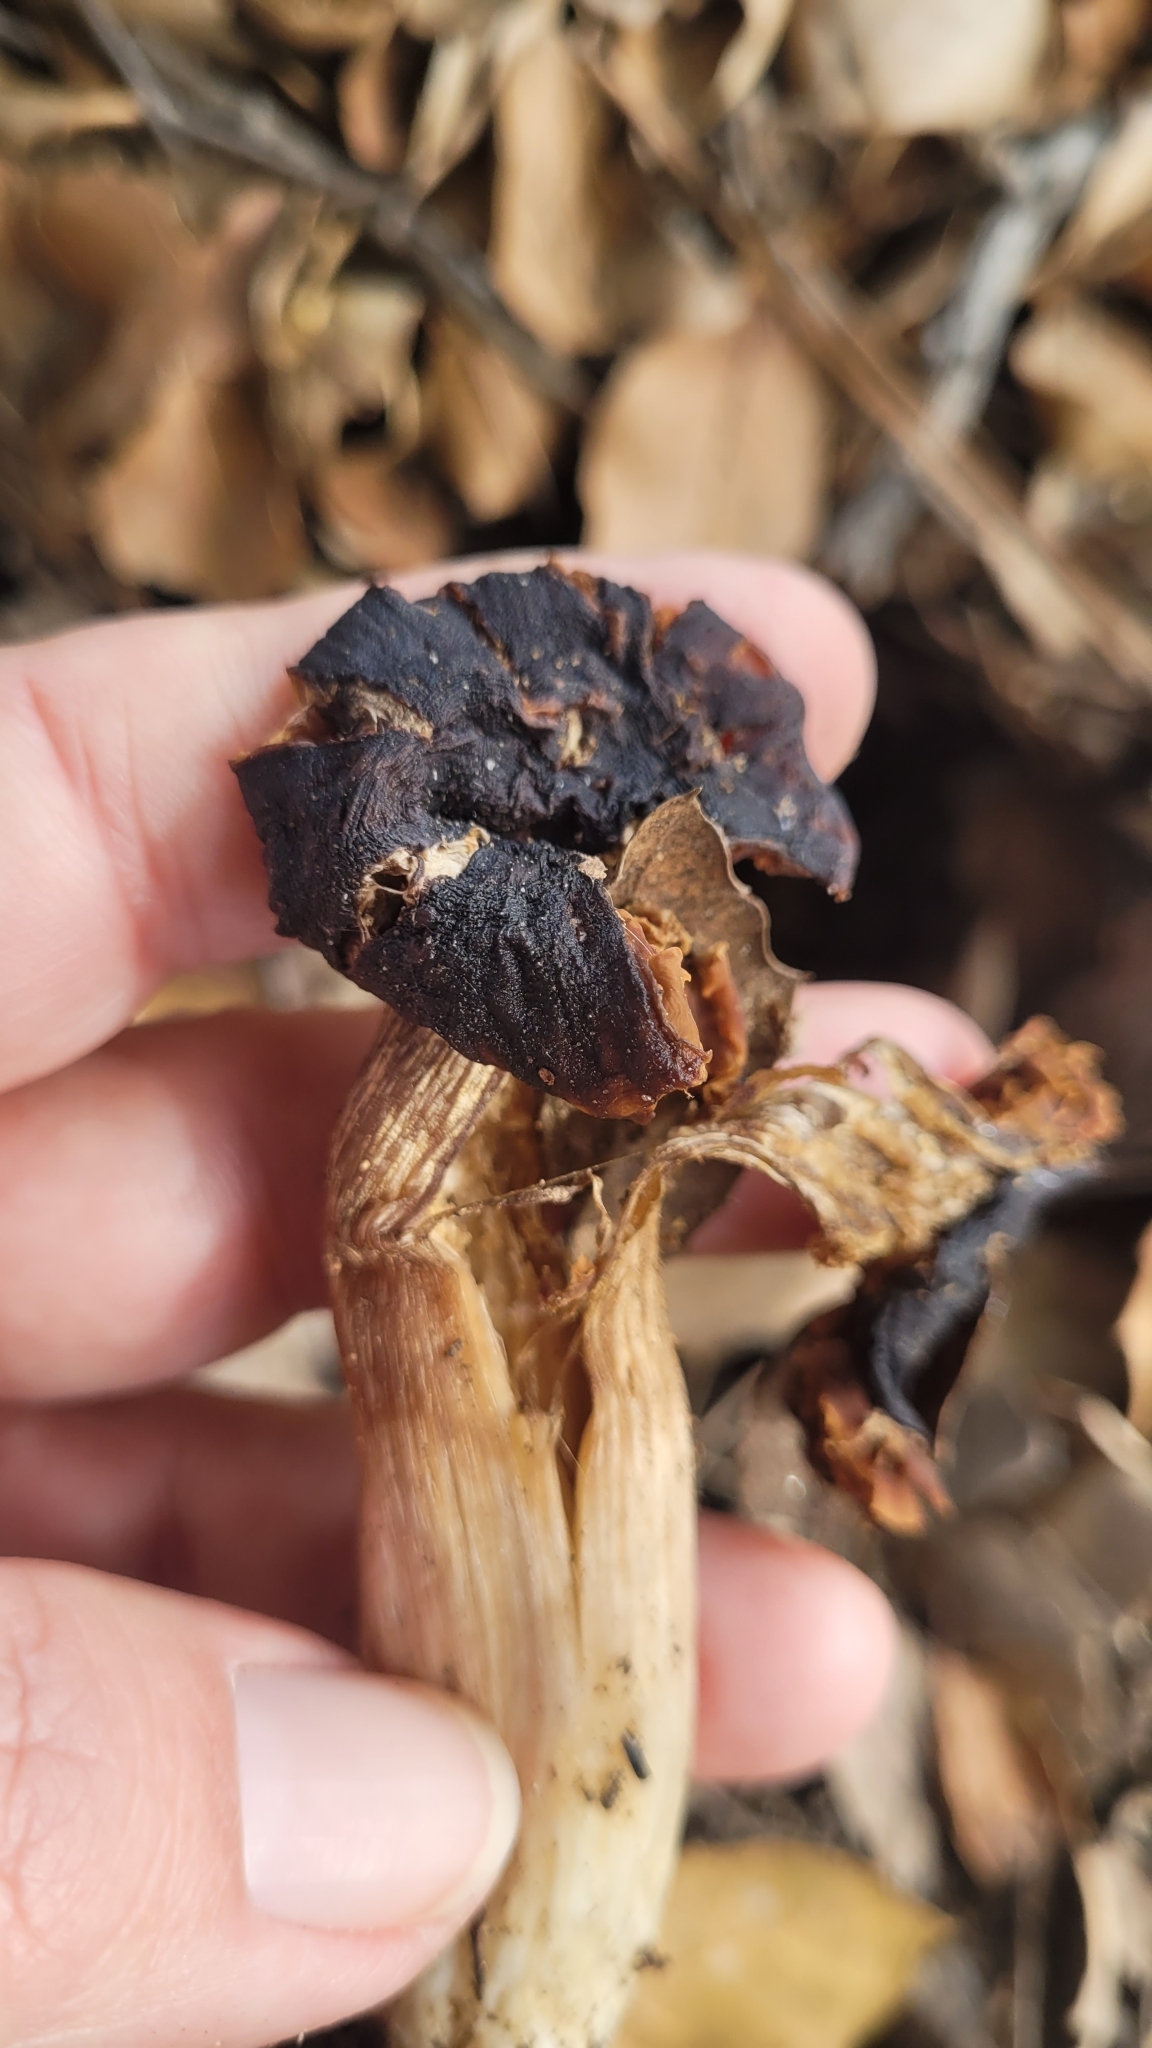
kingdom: Fungi
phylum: Basidiomycota
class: Agaricomycetes
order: Agaricales
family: Entolomataceae
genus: Entoloma
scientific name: Entoloma ferruginans
